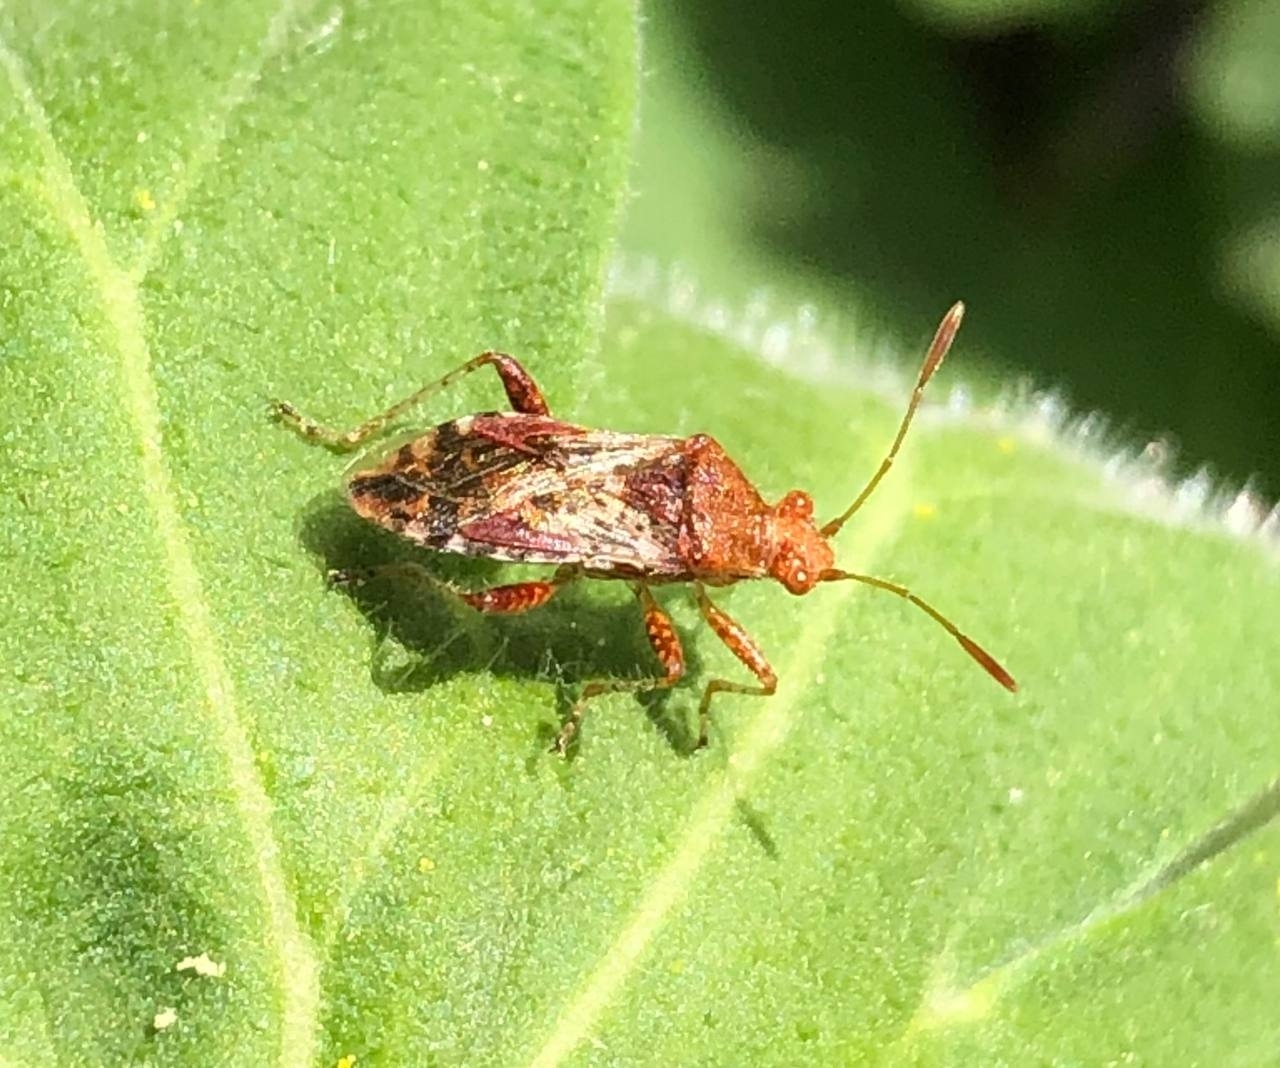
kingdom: Animalia
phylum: Arthropoda
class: Insecta
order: Hemiptera
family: Rhopalidae
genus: Rhopalus
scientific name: Rhopalus subrufus
